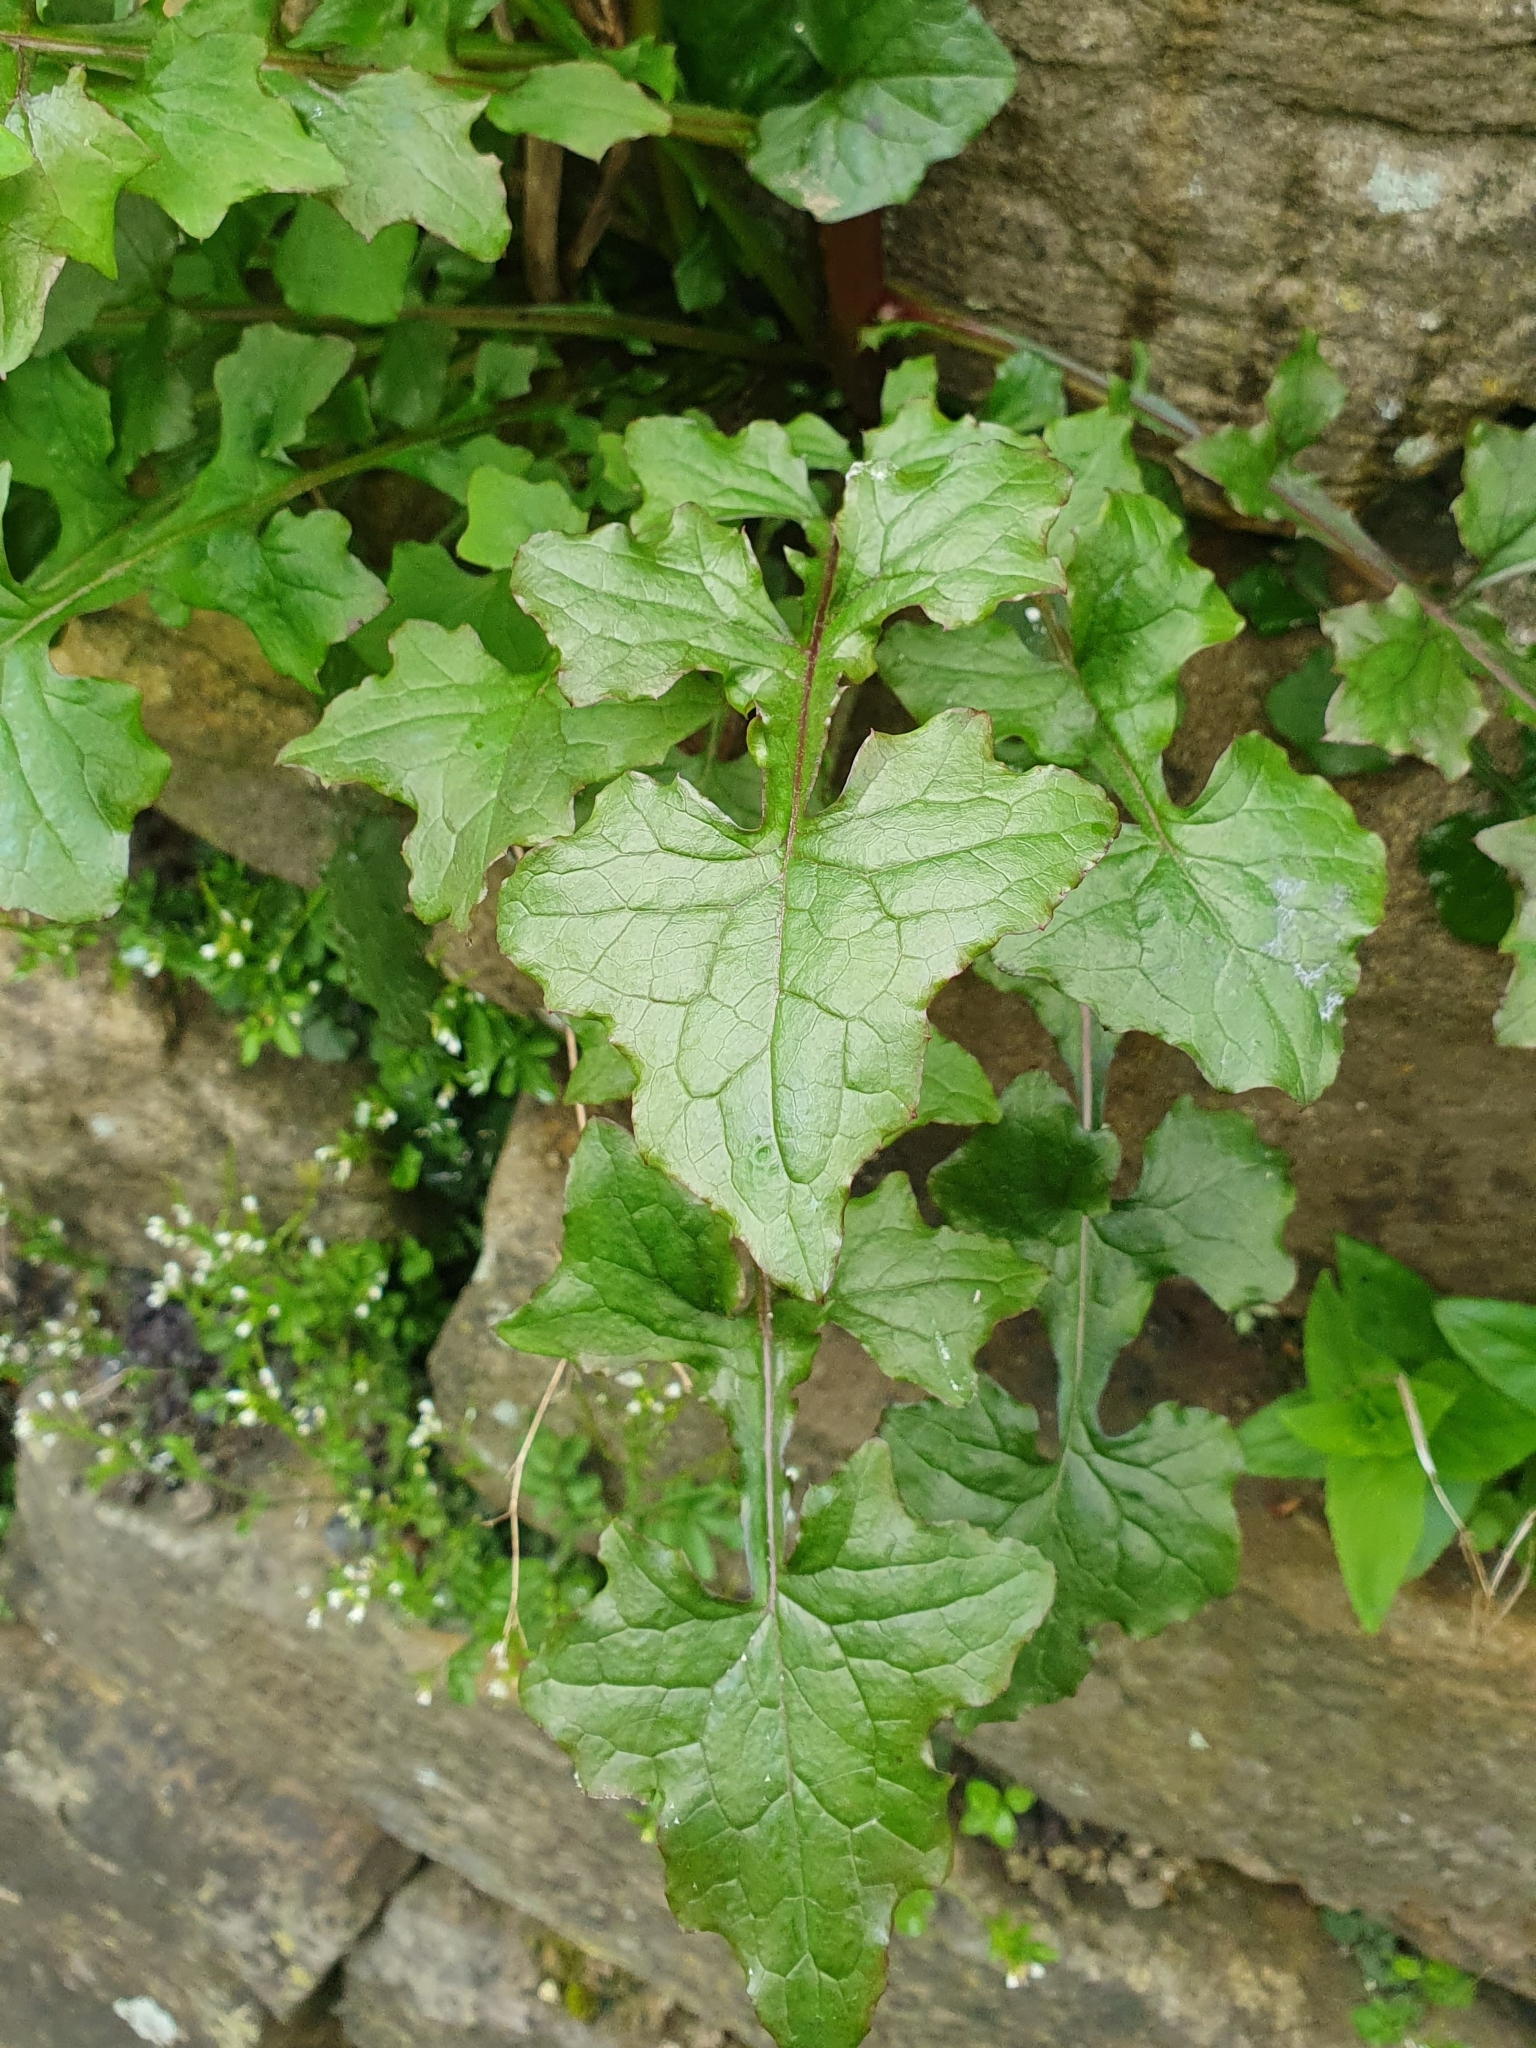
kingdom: Plantae
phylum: Tracheophyta
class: Magnoliopsida
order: Asterales
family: Asteraceae
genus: Mycelis
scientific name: Mycelis muralis
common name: Wall lettuce
